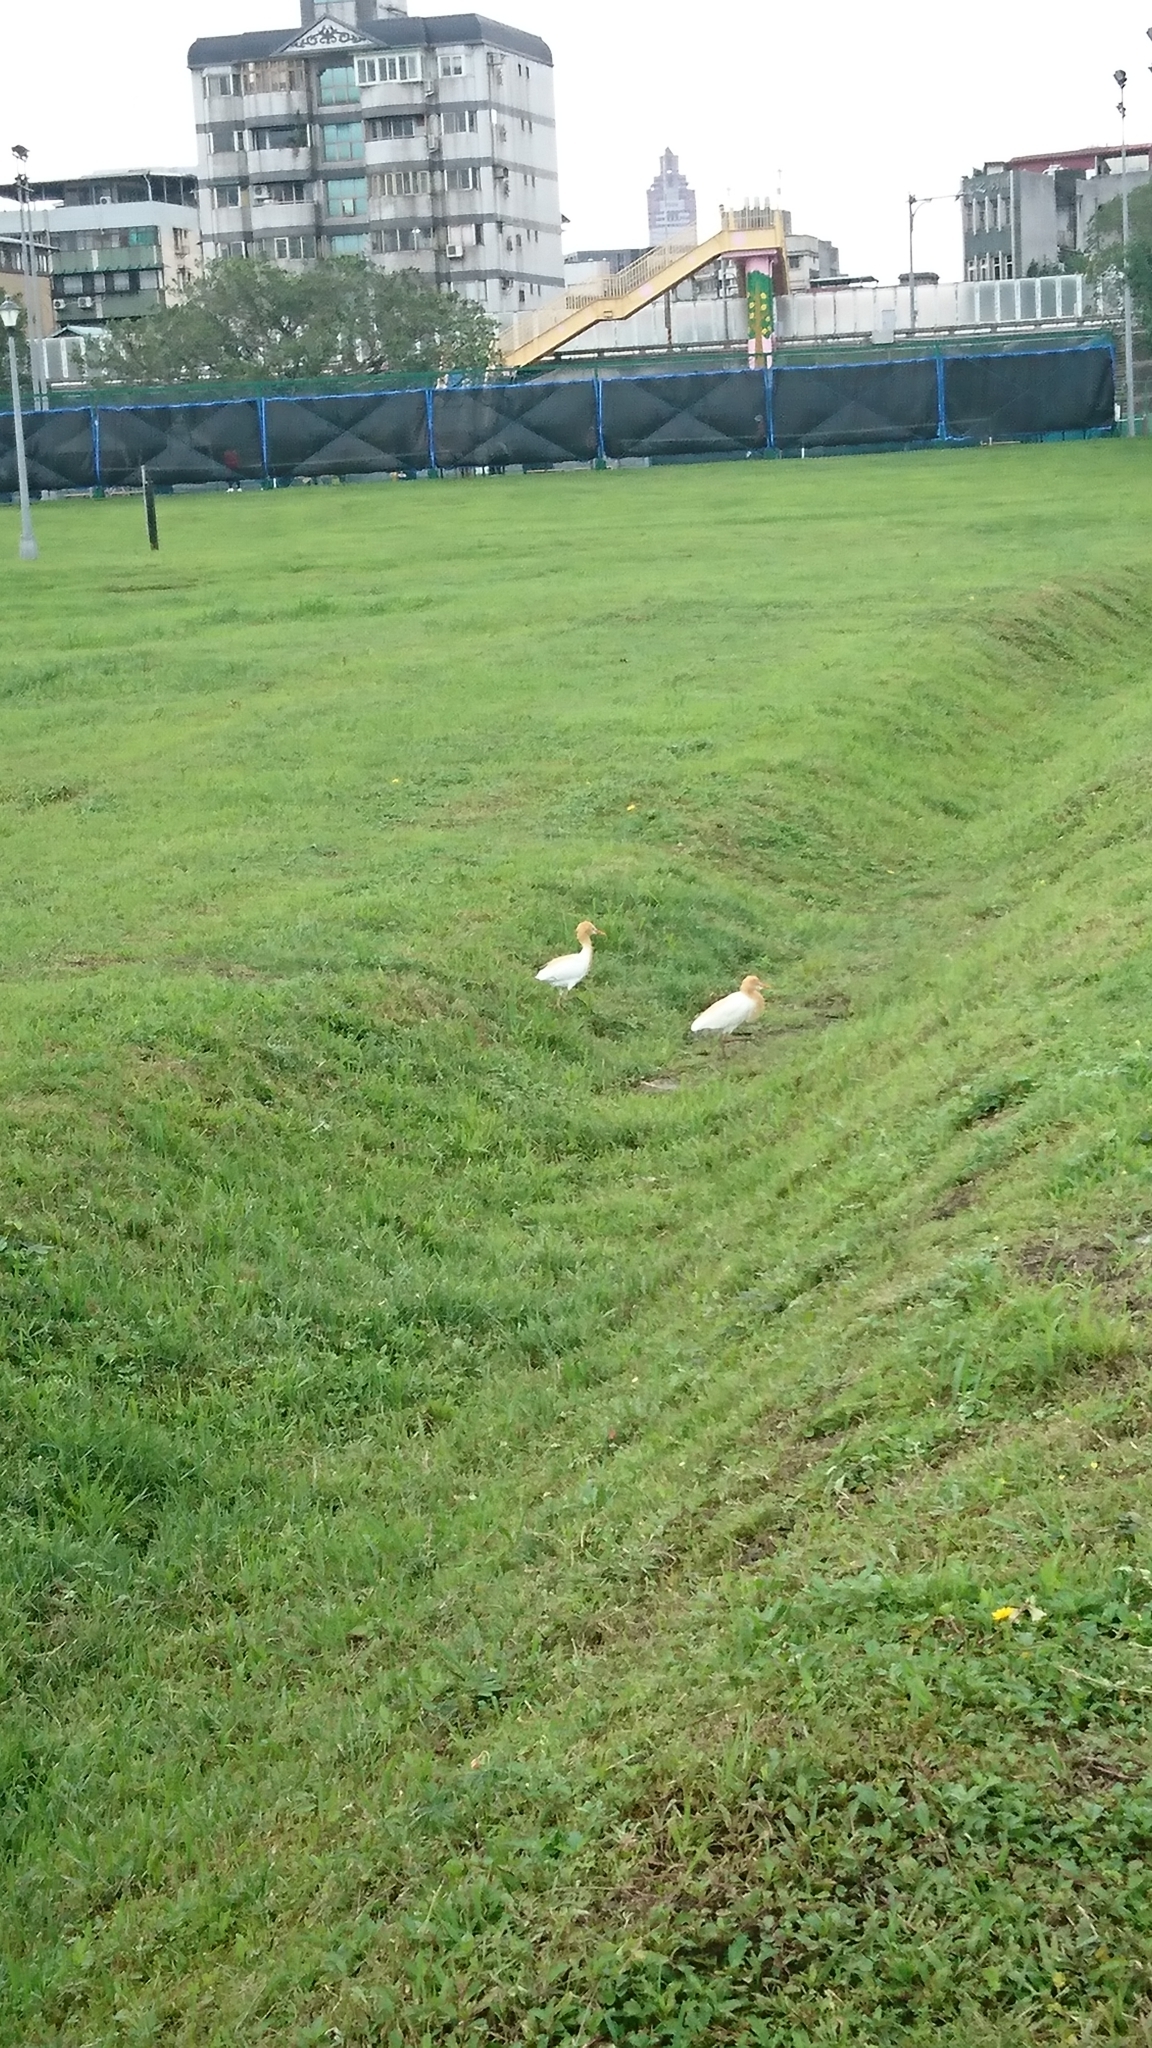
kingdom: Animalia
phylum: Chordata
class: Aves
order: Pelecaniformes
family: Ardeidae
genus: Bubulcus
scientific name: Bubulcus coromandus
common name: Eastern cattle egret
